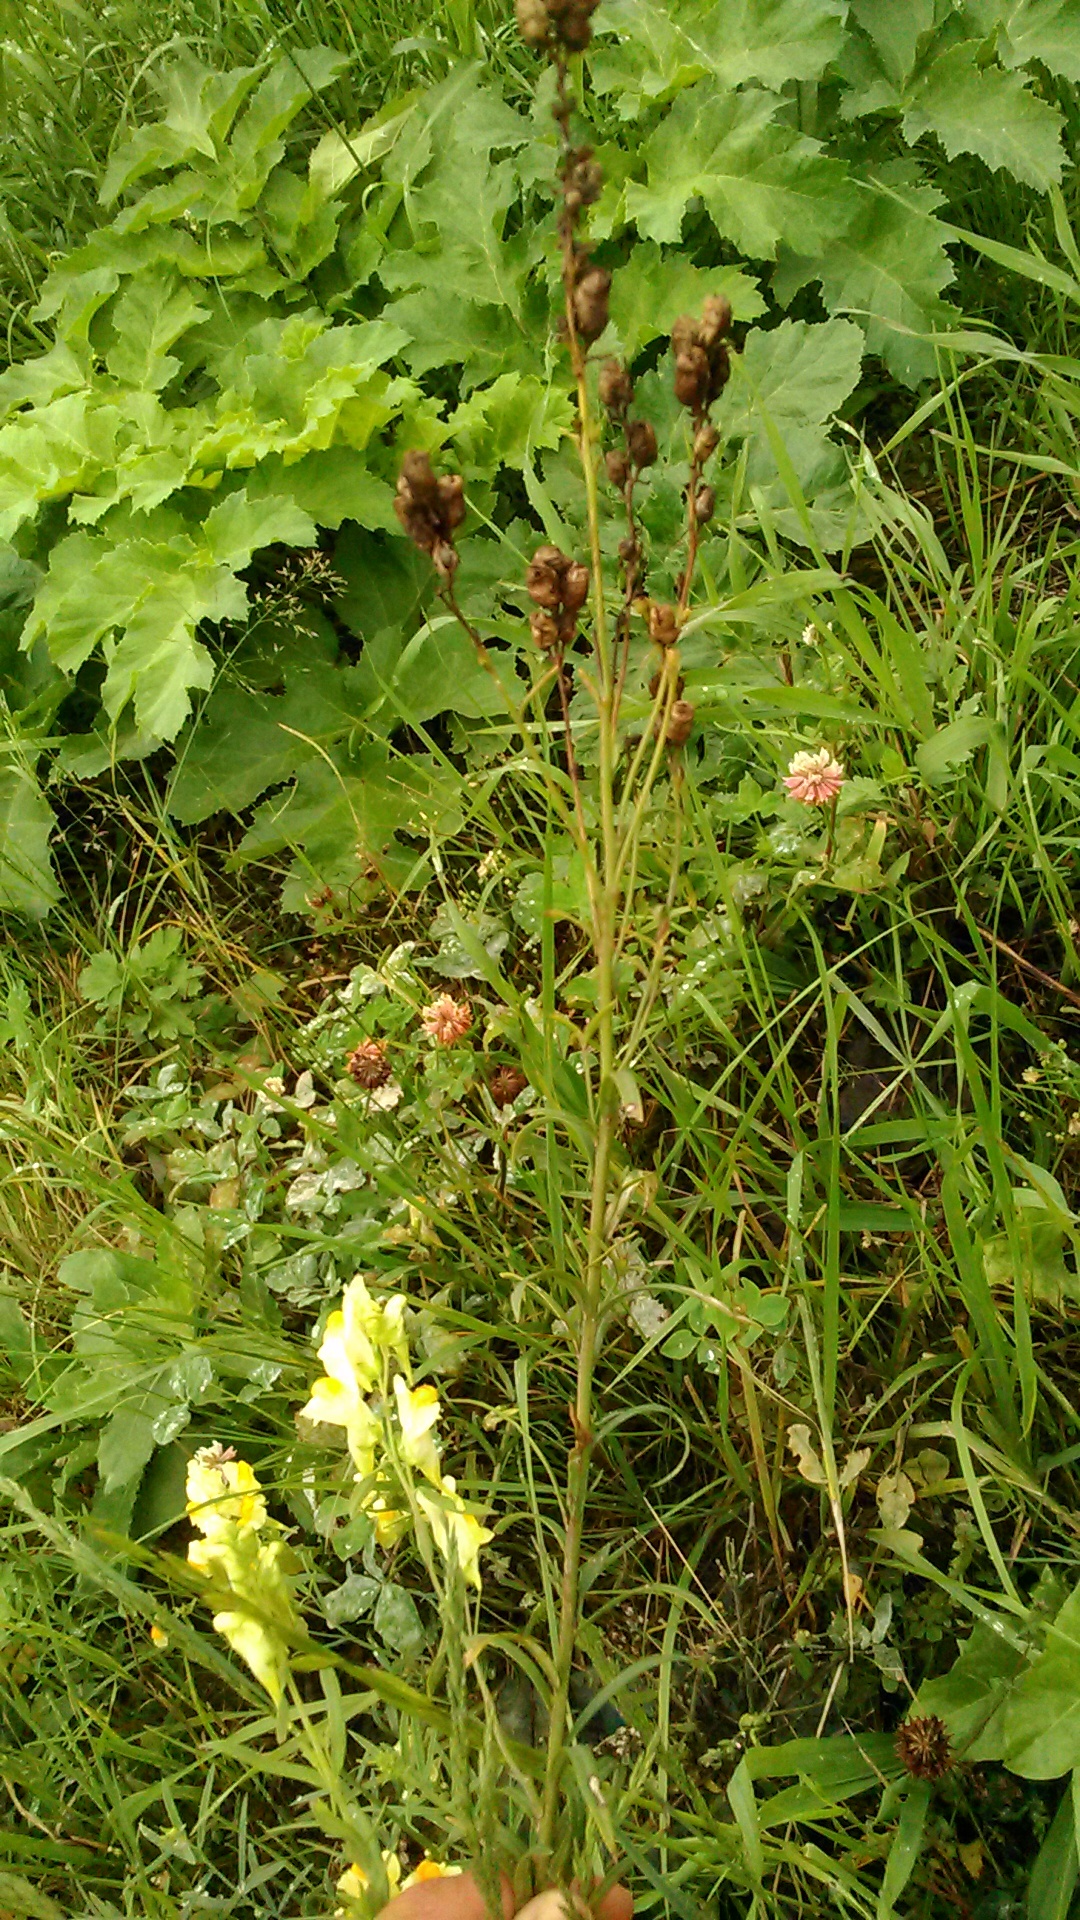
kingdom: Plantae
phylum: Tracheophyta
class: Magnoliopsida
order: Lamiales
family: Plantaginaceae
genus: Linaria
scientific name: Linaria vulgaris
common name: Butter and eggs
